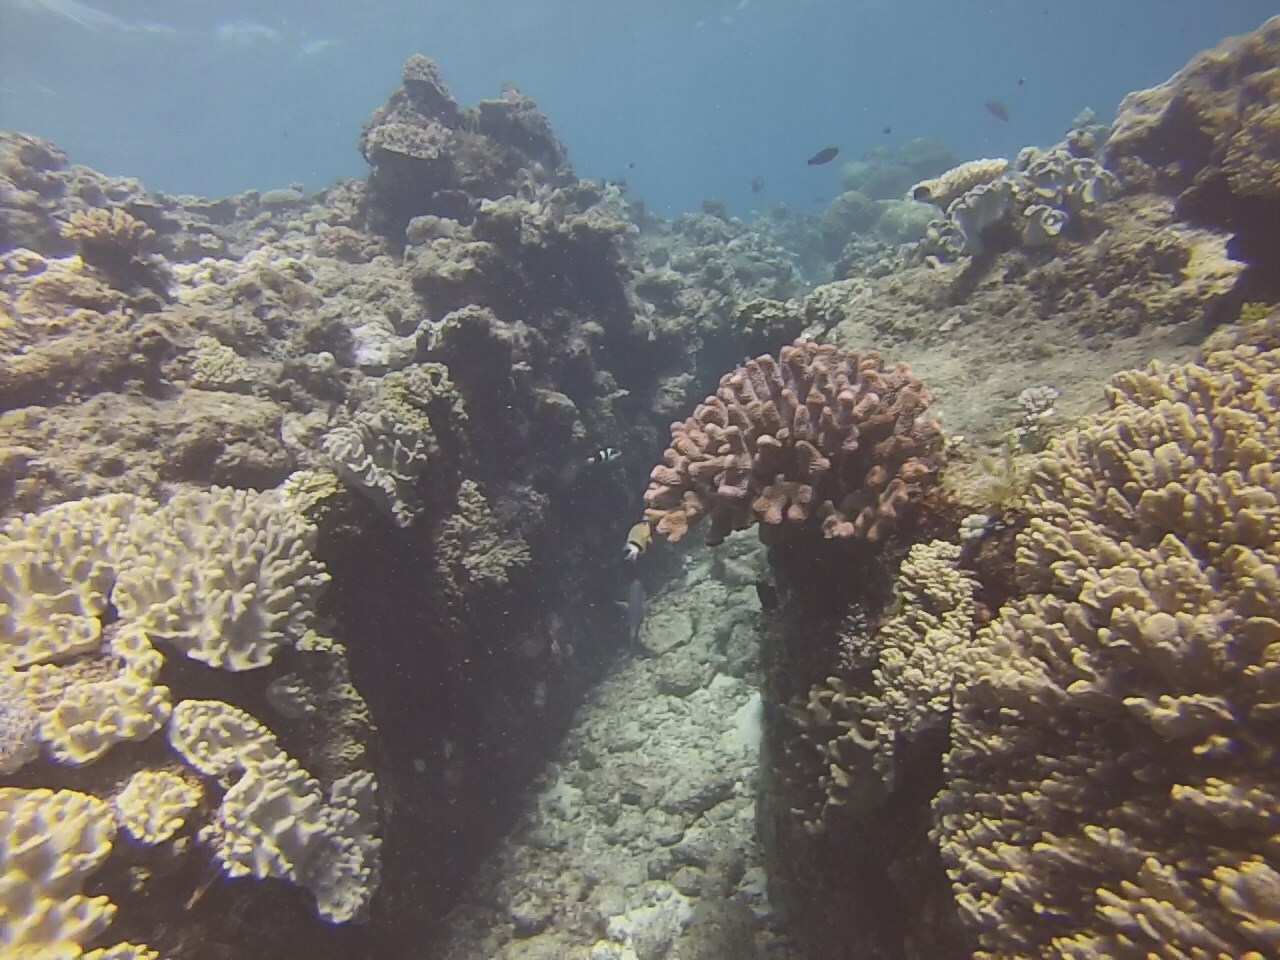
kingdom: Animalia
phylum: Chordata
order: Perciformes
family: Pomacentridae
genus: Plectroglyphidodon
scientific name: Plectroglyphidodon dickii
